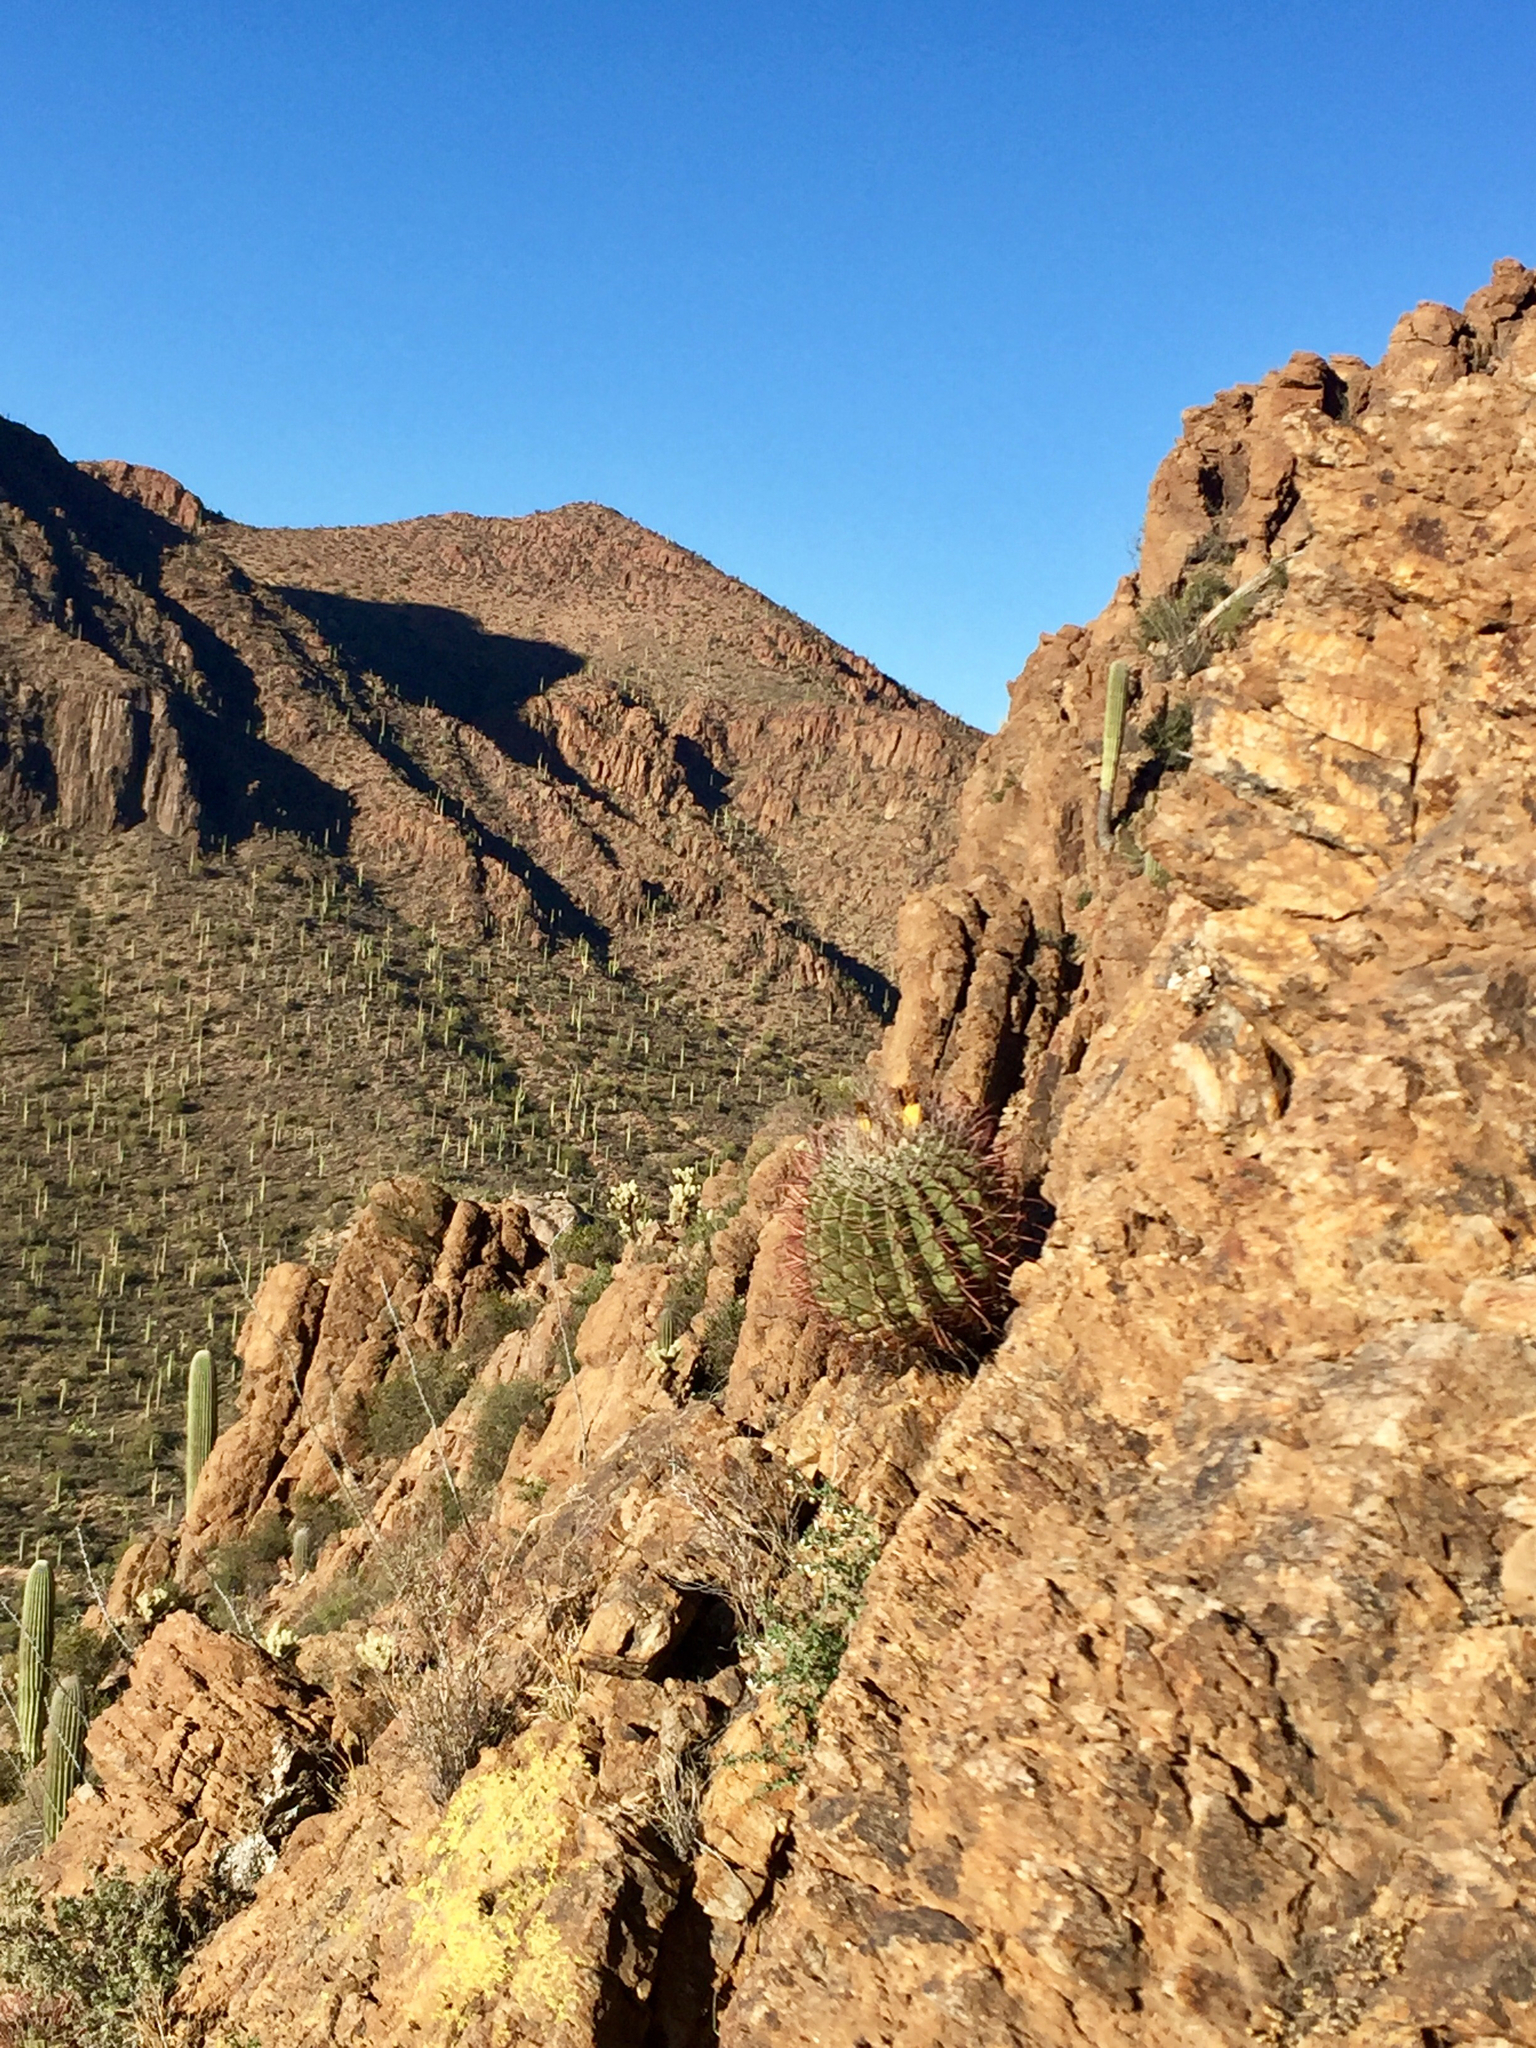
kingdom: Plantae
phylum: Tracheophyta
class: Magnoliopsida
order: Caryophyllales
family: Cactaceae
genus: Ferocactus
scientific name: Ferocactus wislizeni
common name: Candy barrel cactus
